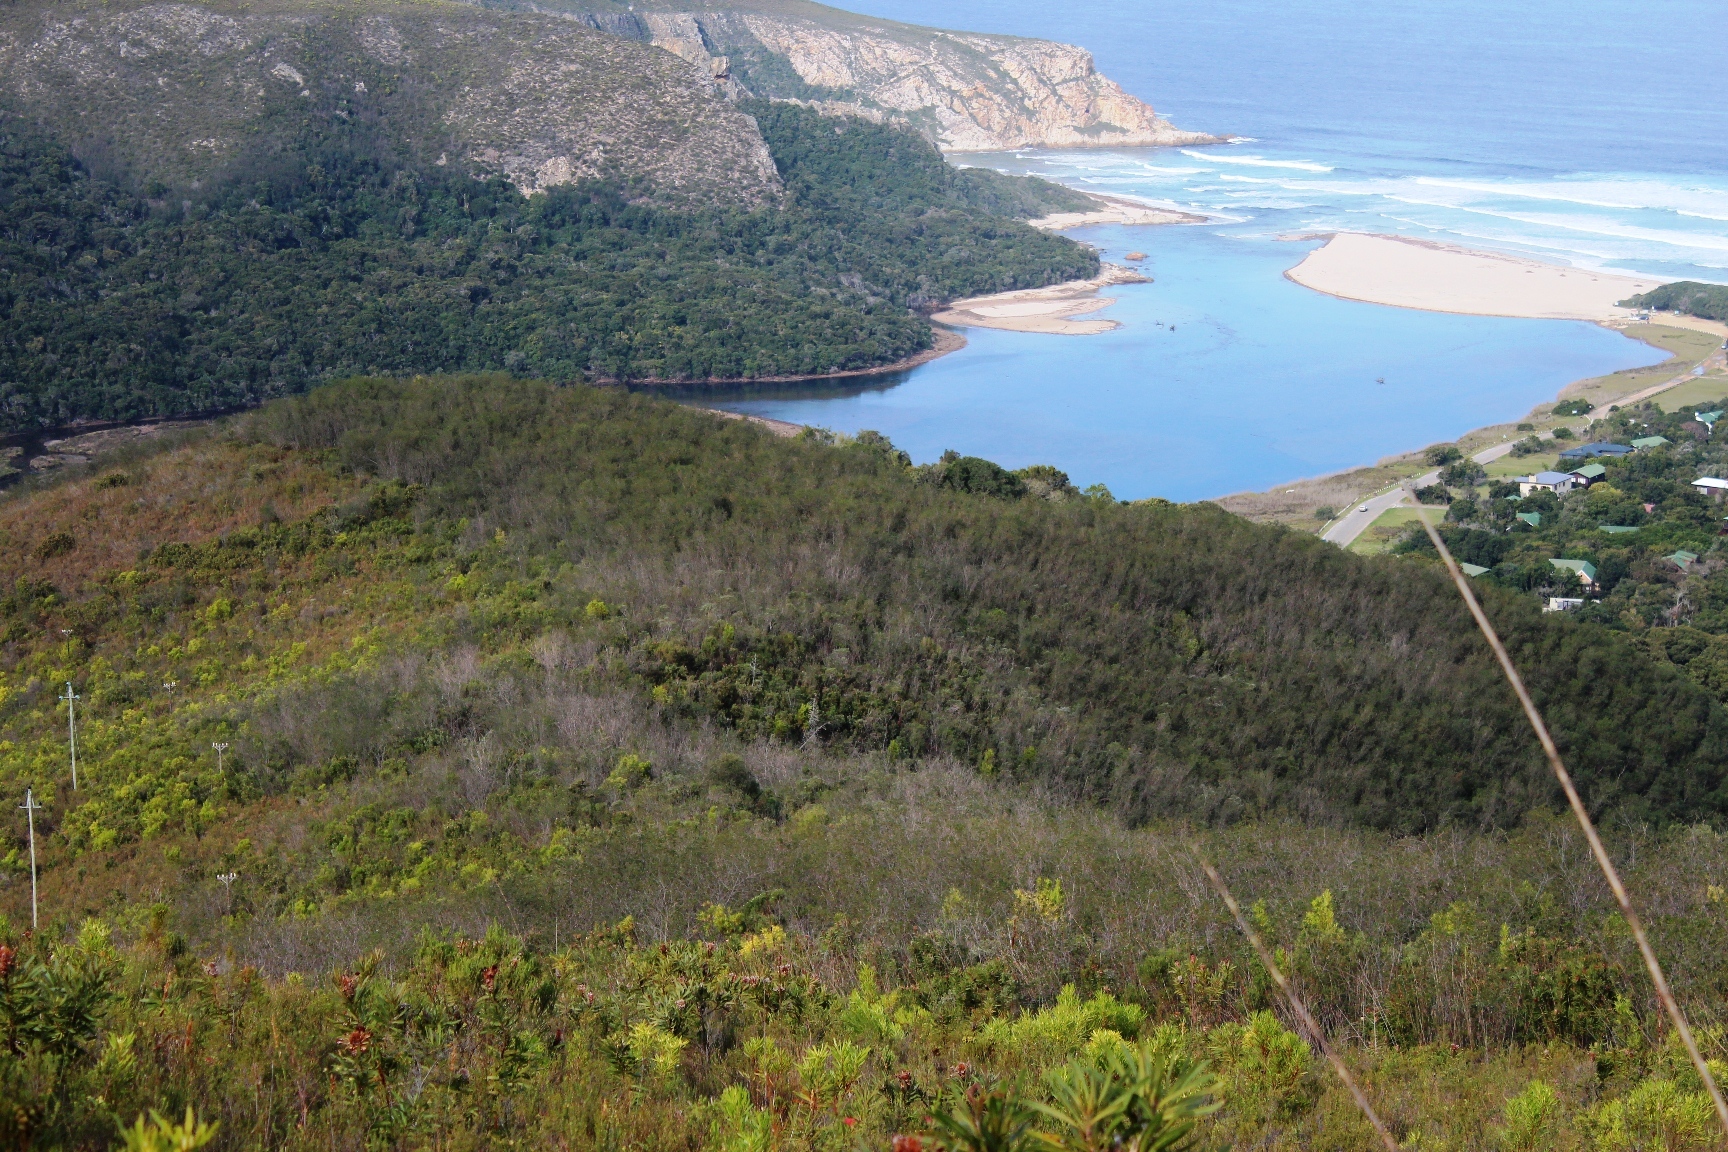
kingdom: Plantae
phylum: Tracheophyta
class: Magnoliopsida
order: Fabales
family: Fabaceae
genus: Virgilia
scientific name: Virgilia divaricata
